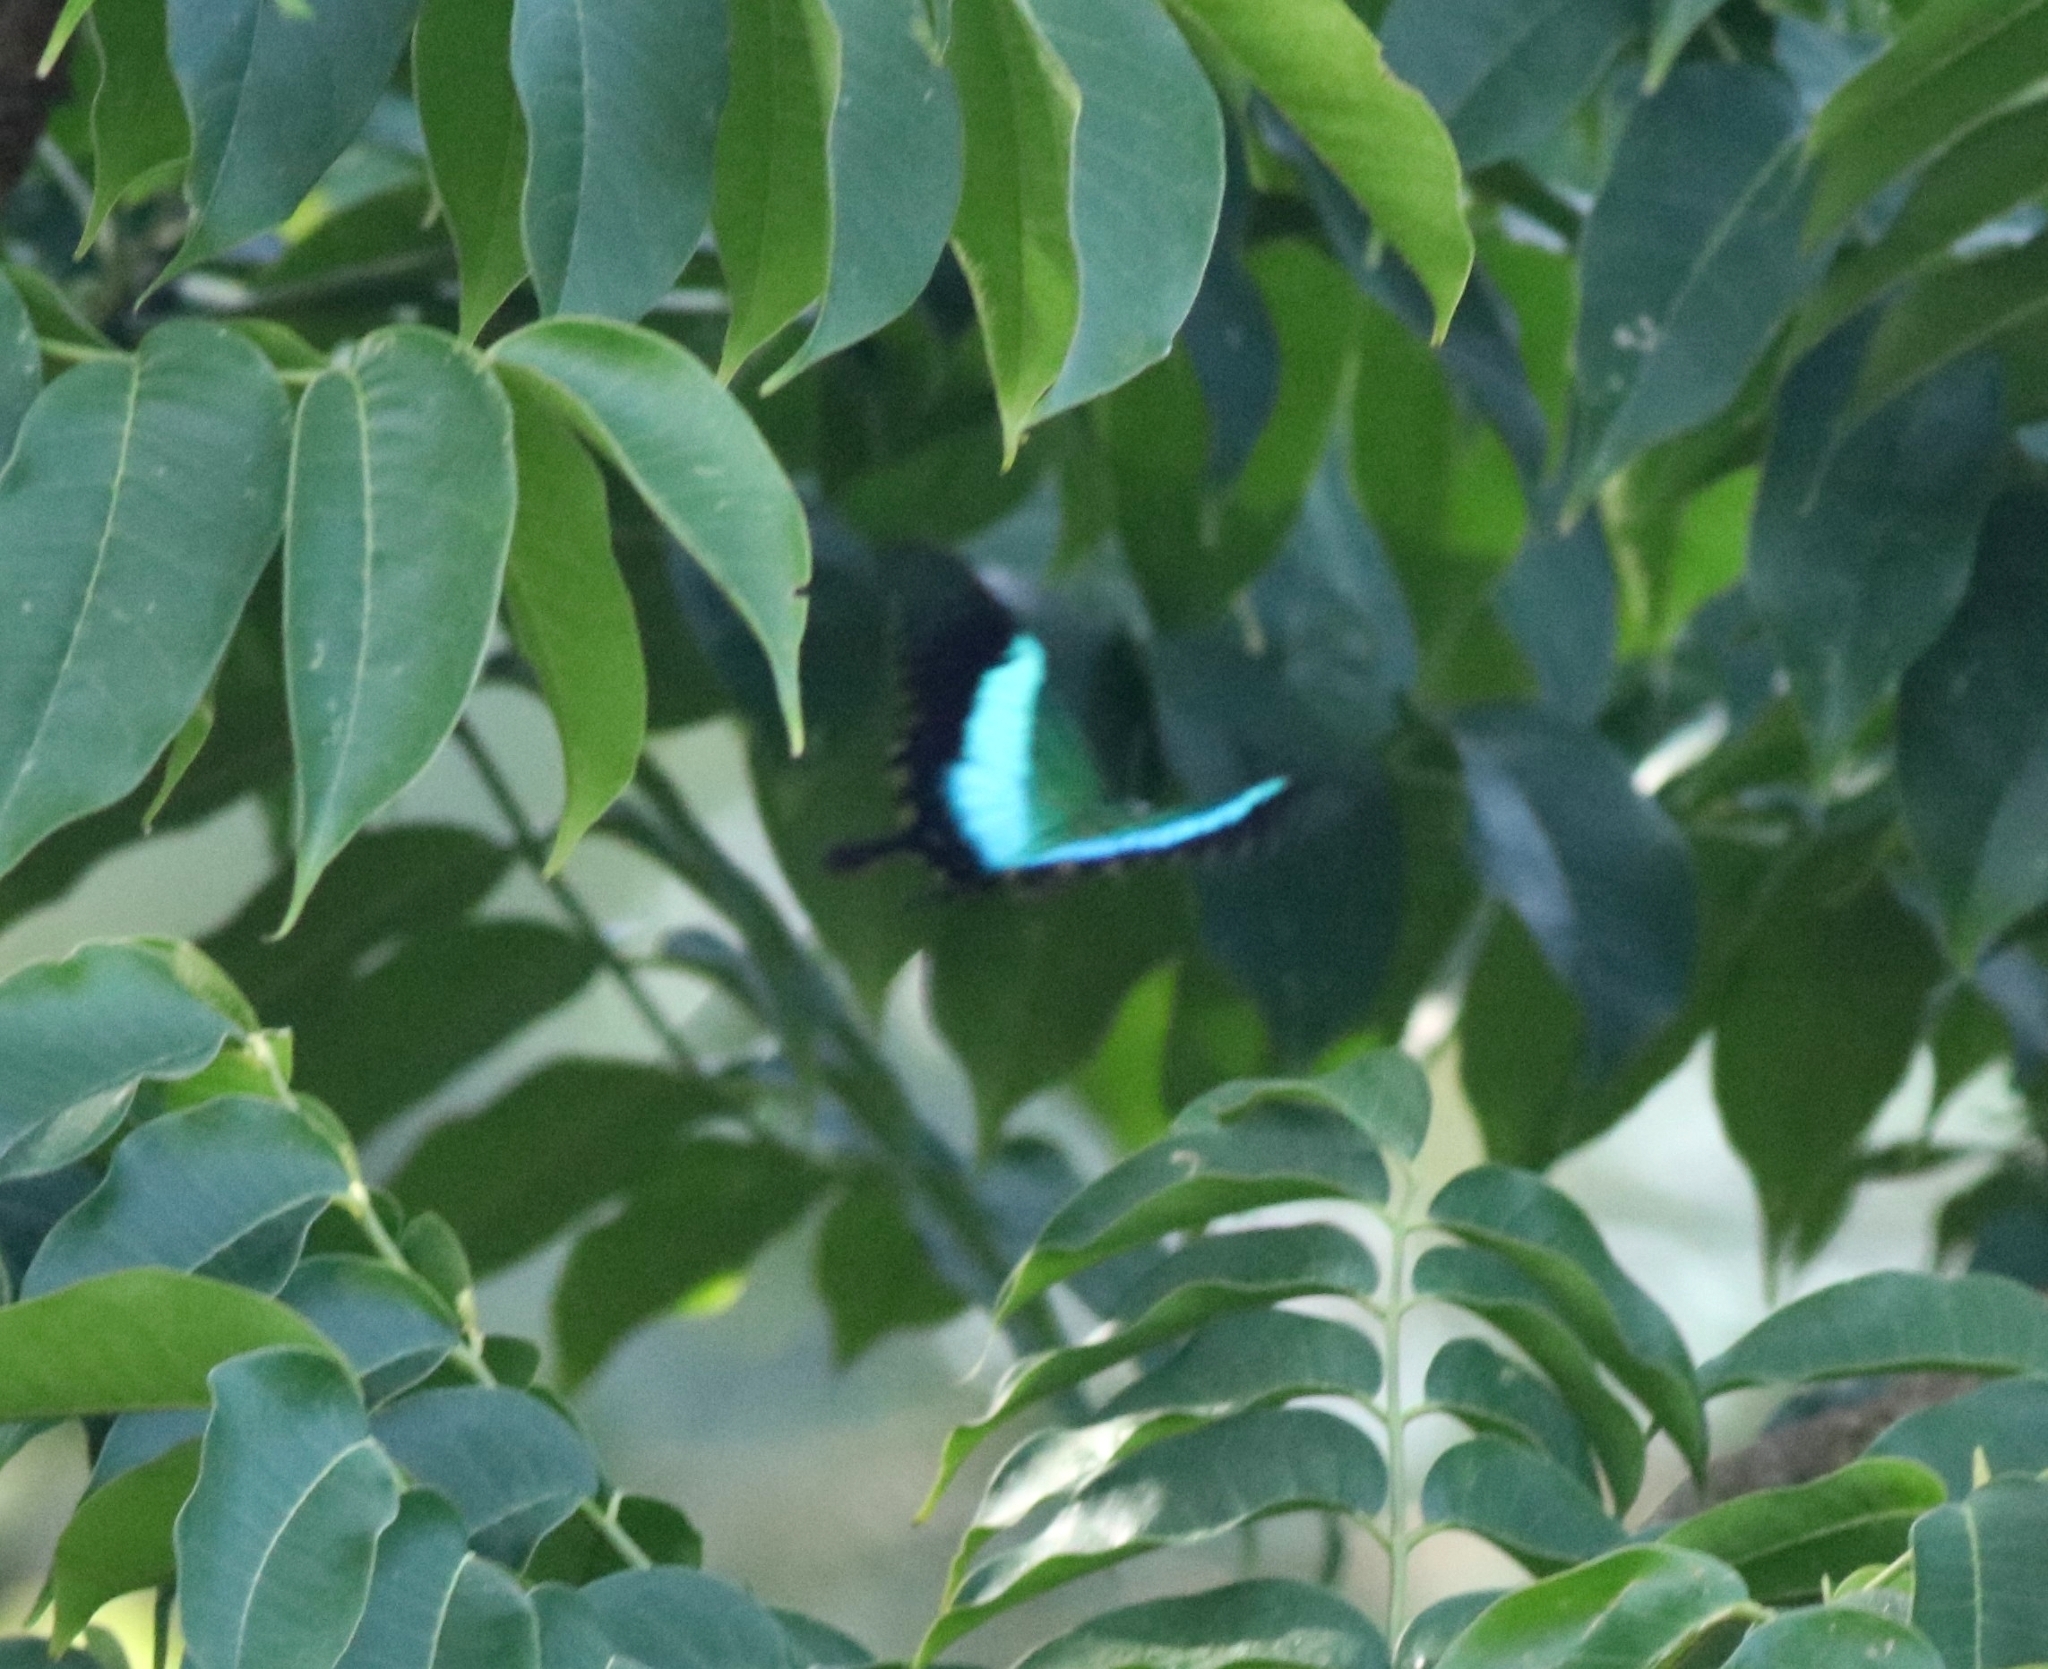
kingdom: Animalia
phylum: Arthropoda
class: Insecta
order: Lepidoptera
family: Papilionidae
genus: Papilio
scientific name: Papilio buddha
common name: Malabar banded peacock
